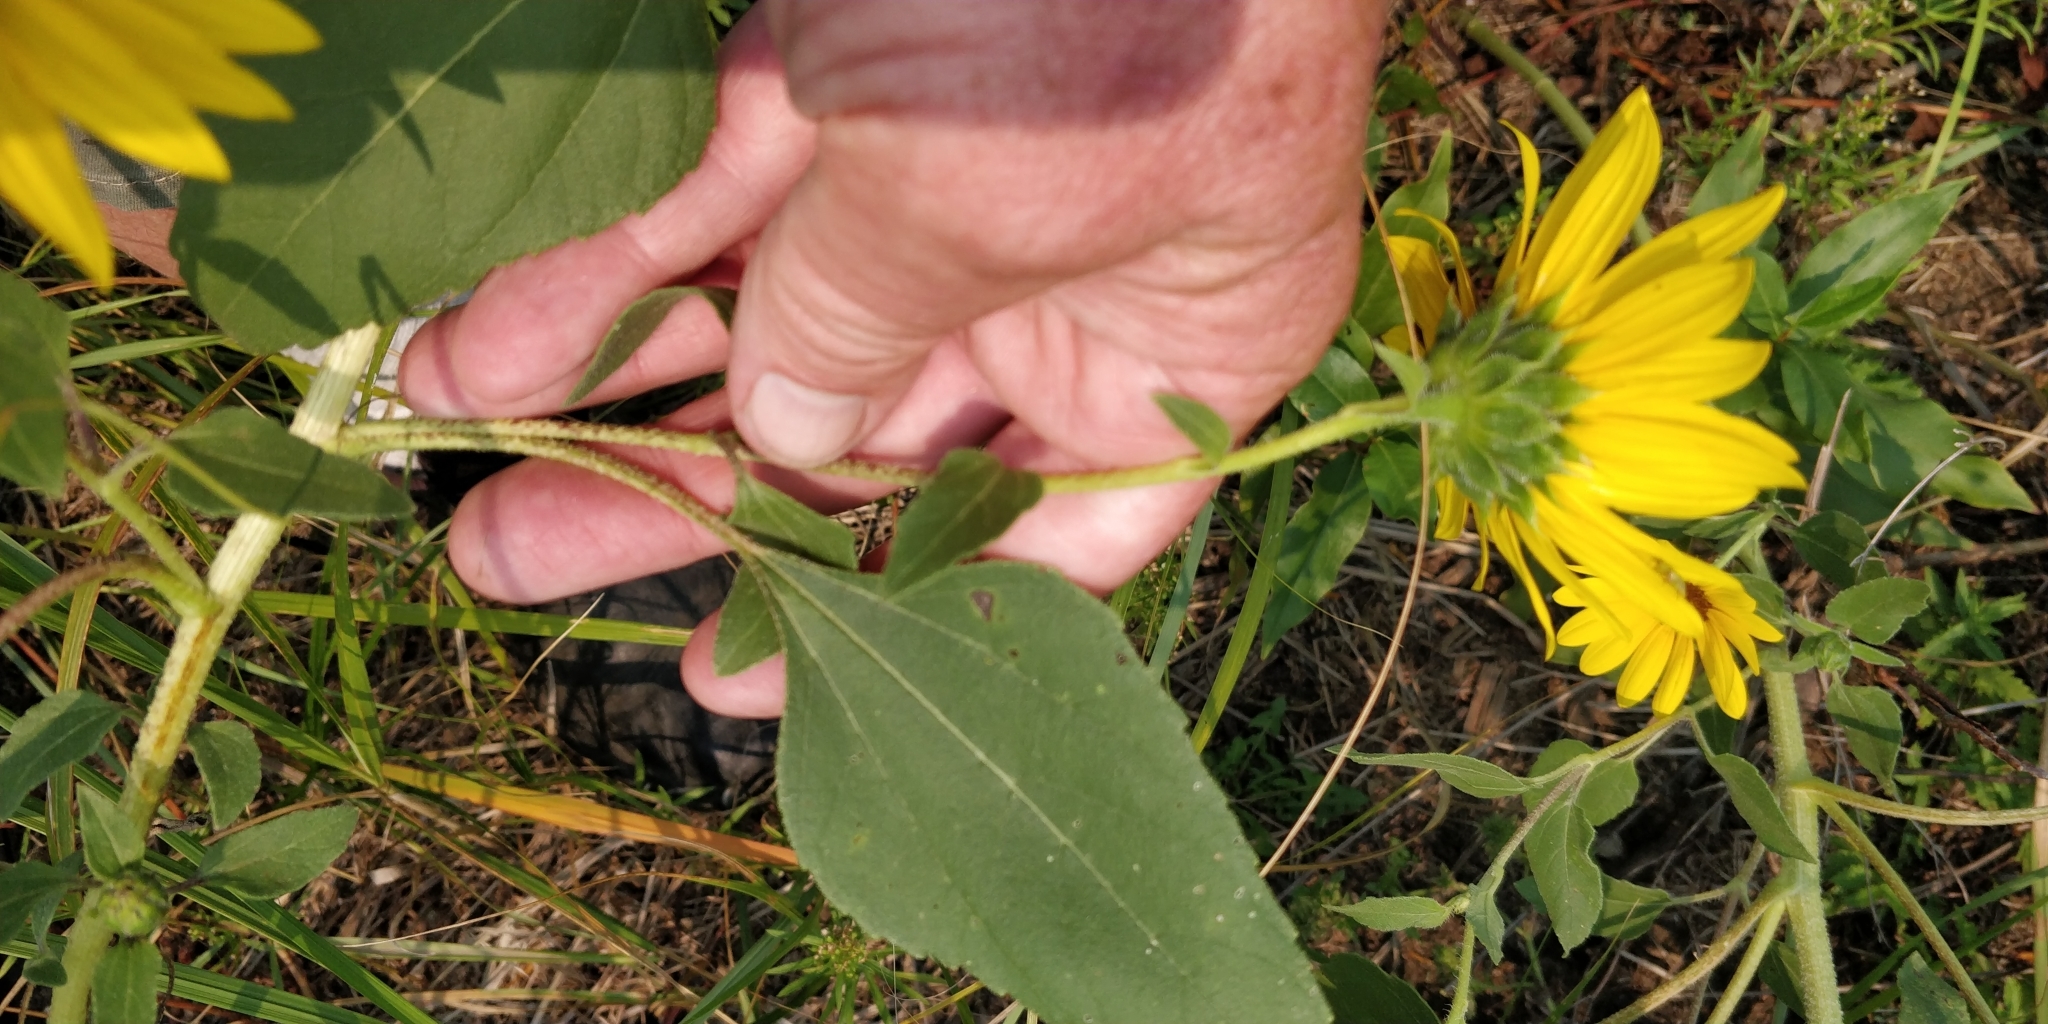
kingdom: Plantae
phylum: Tracheophyta
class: Magnoliopsida
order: Asterales
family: Asteraceae
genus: Helianthus
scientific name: Helianthus annuus
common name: Sunflower
